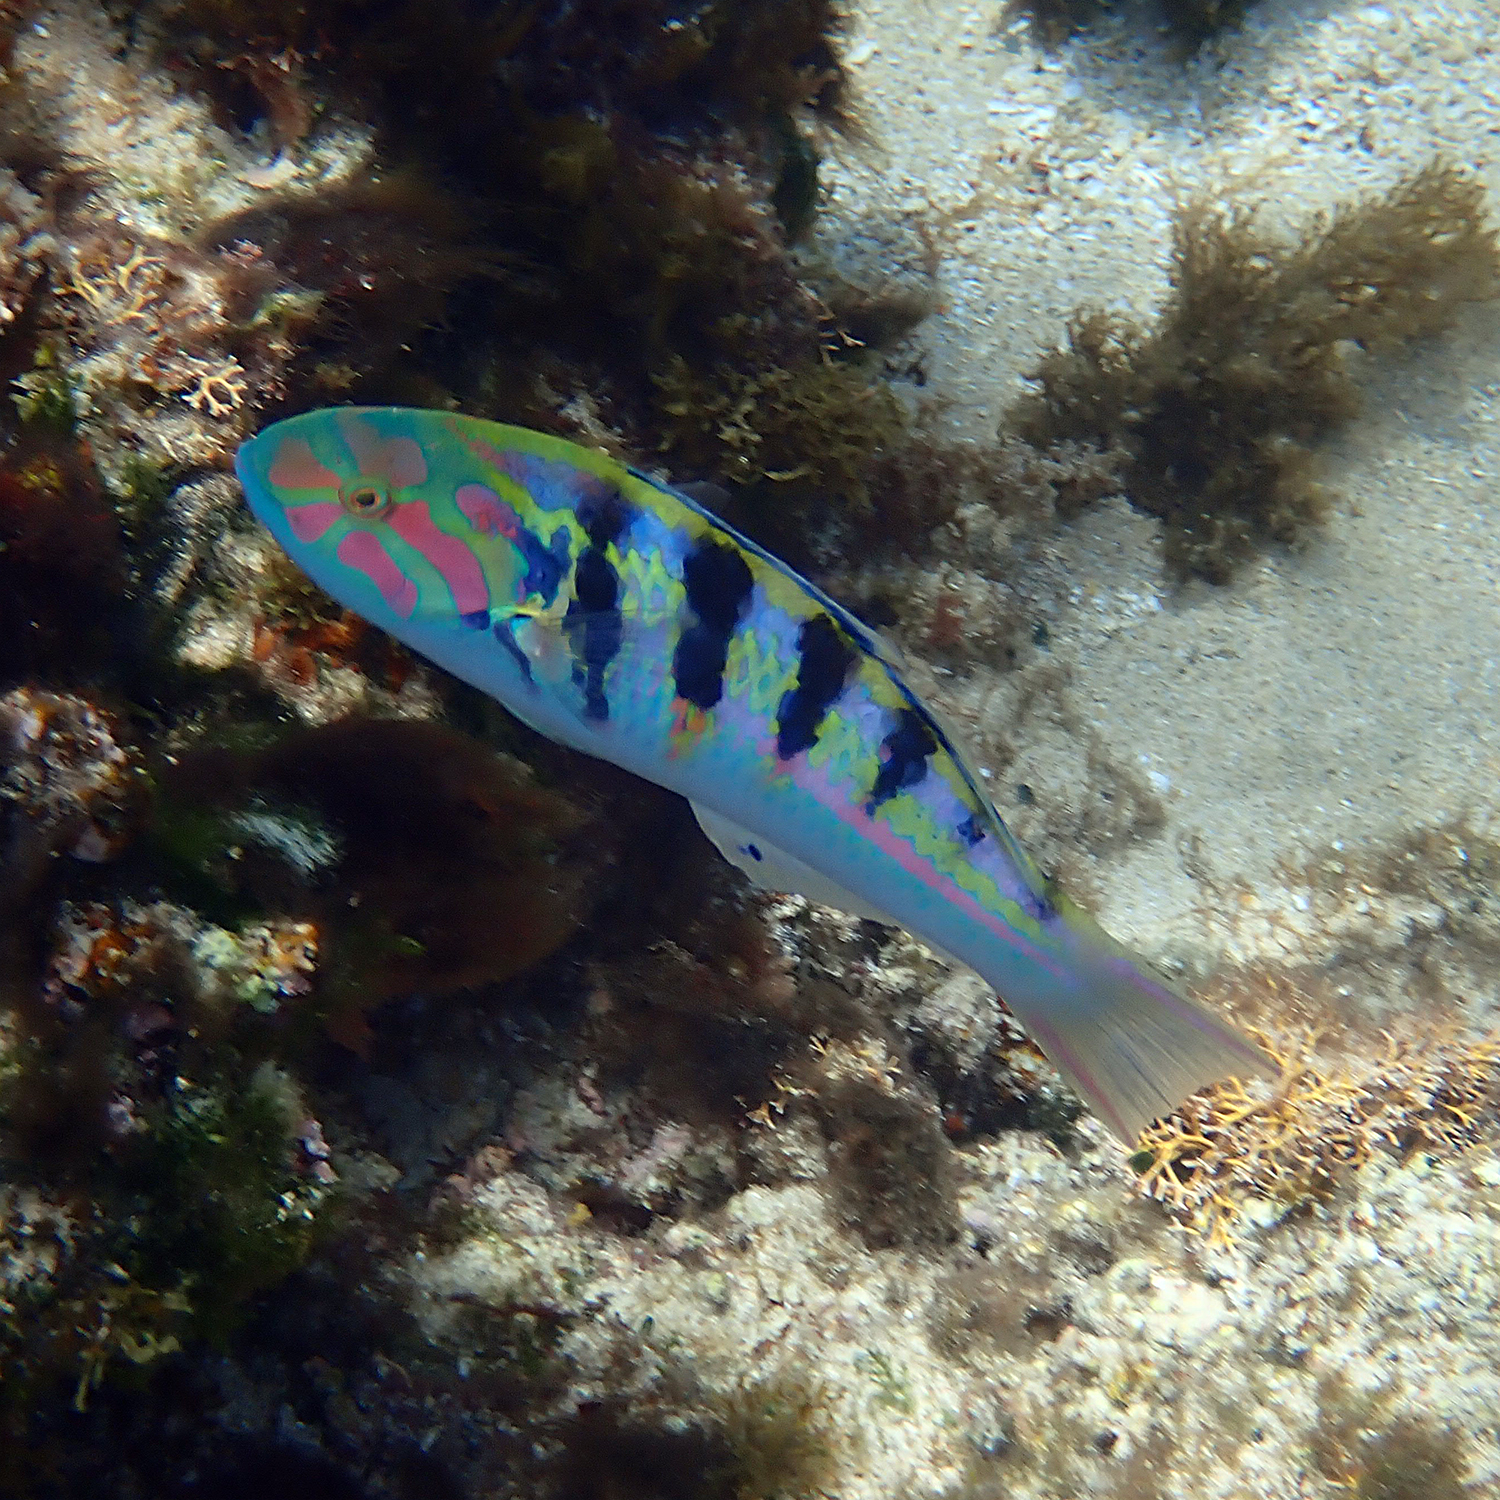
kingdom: Animalia
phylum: Chordata
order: Perciformes
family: Labridae
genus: Thalassoma
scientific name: Thalassoma hardwicke
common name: Sixbar wrasse
